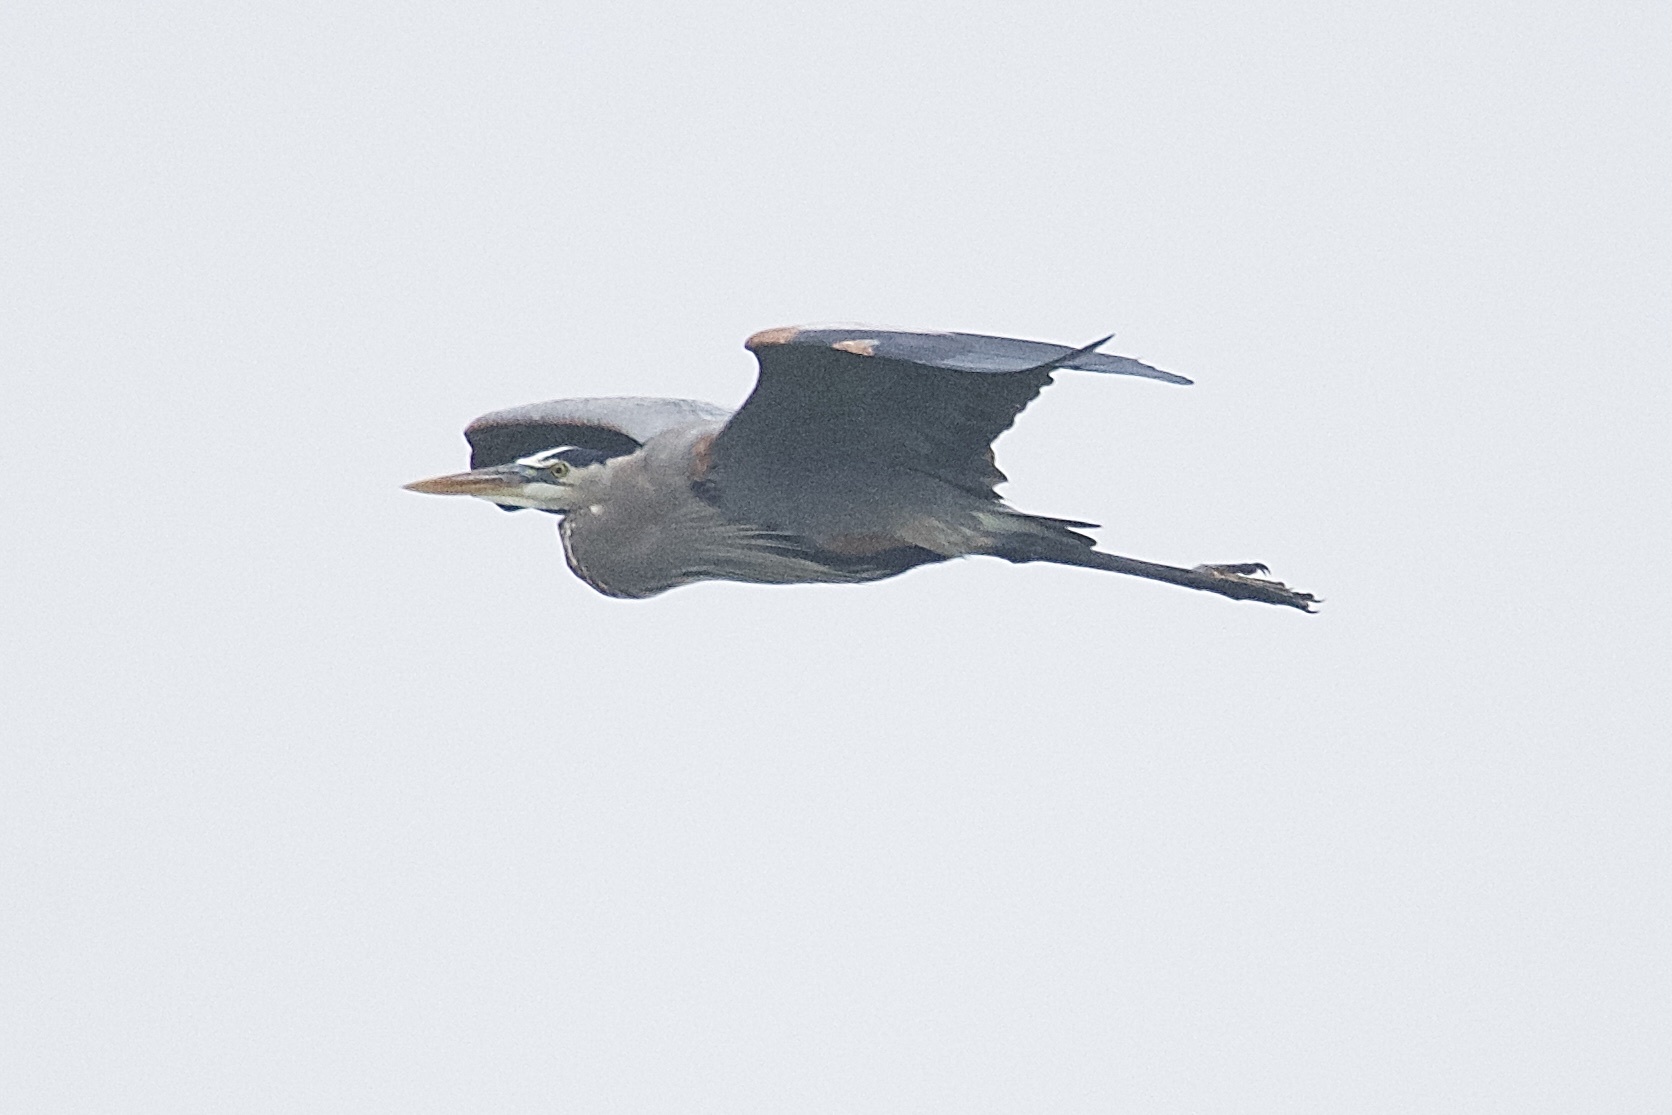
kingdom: Animalia
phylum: Chordata
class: Aves
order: Pelecaniformes
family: Ardeidae
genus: Ardea
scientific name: Ardea herodias
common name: Great blue heron
